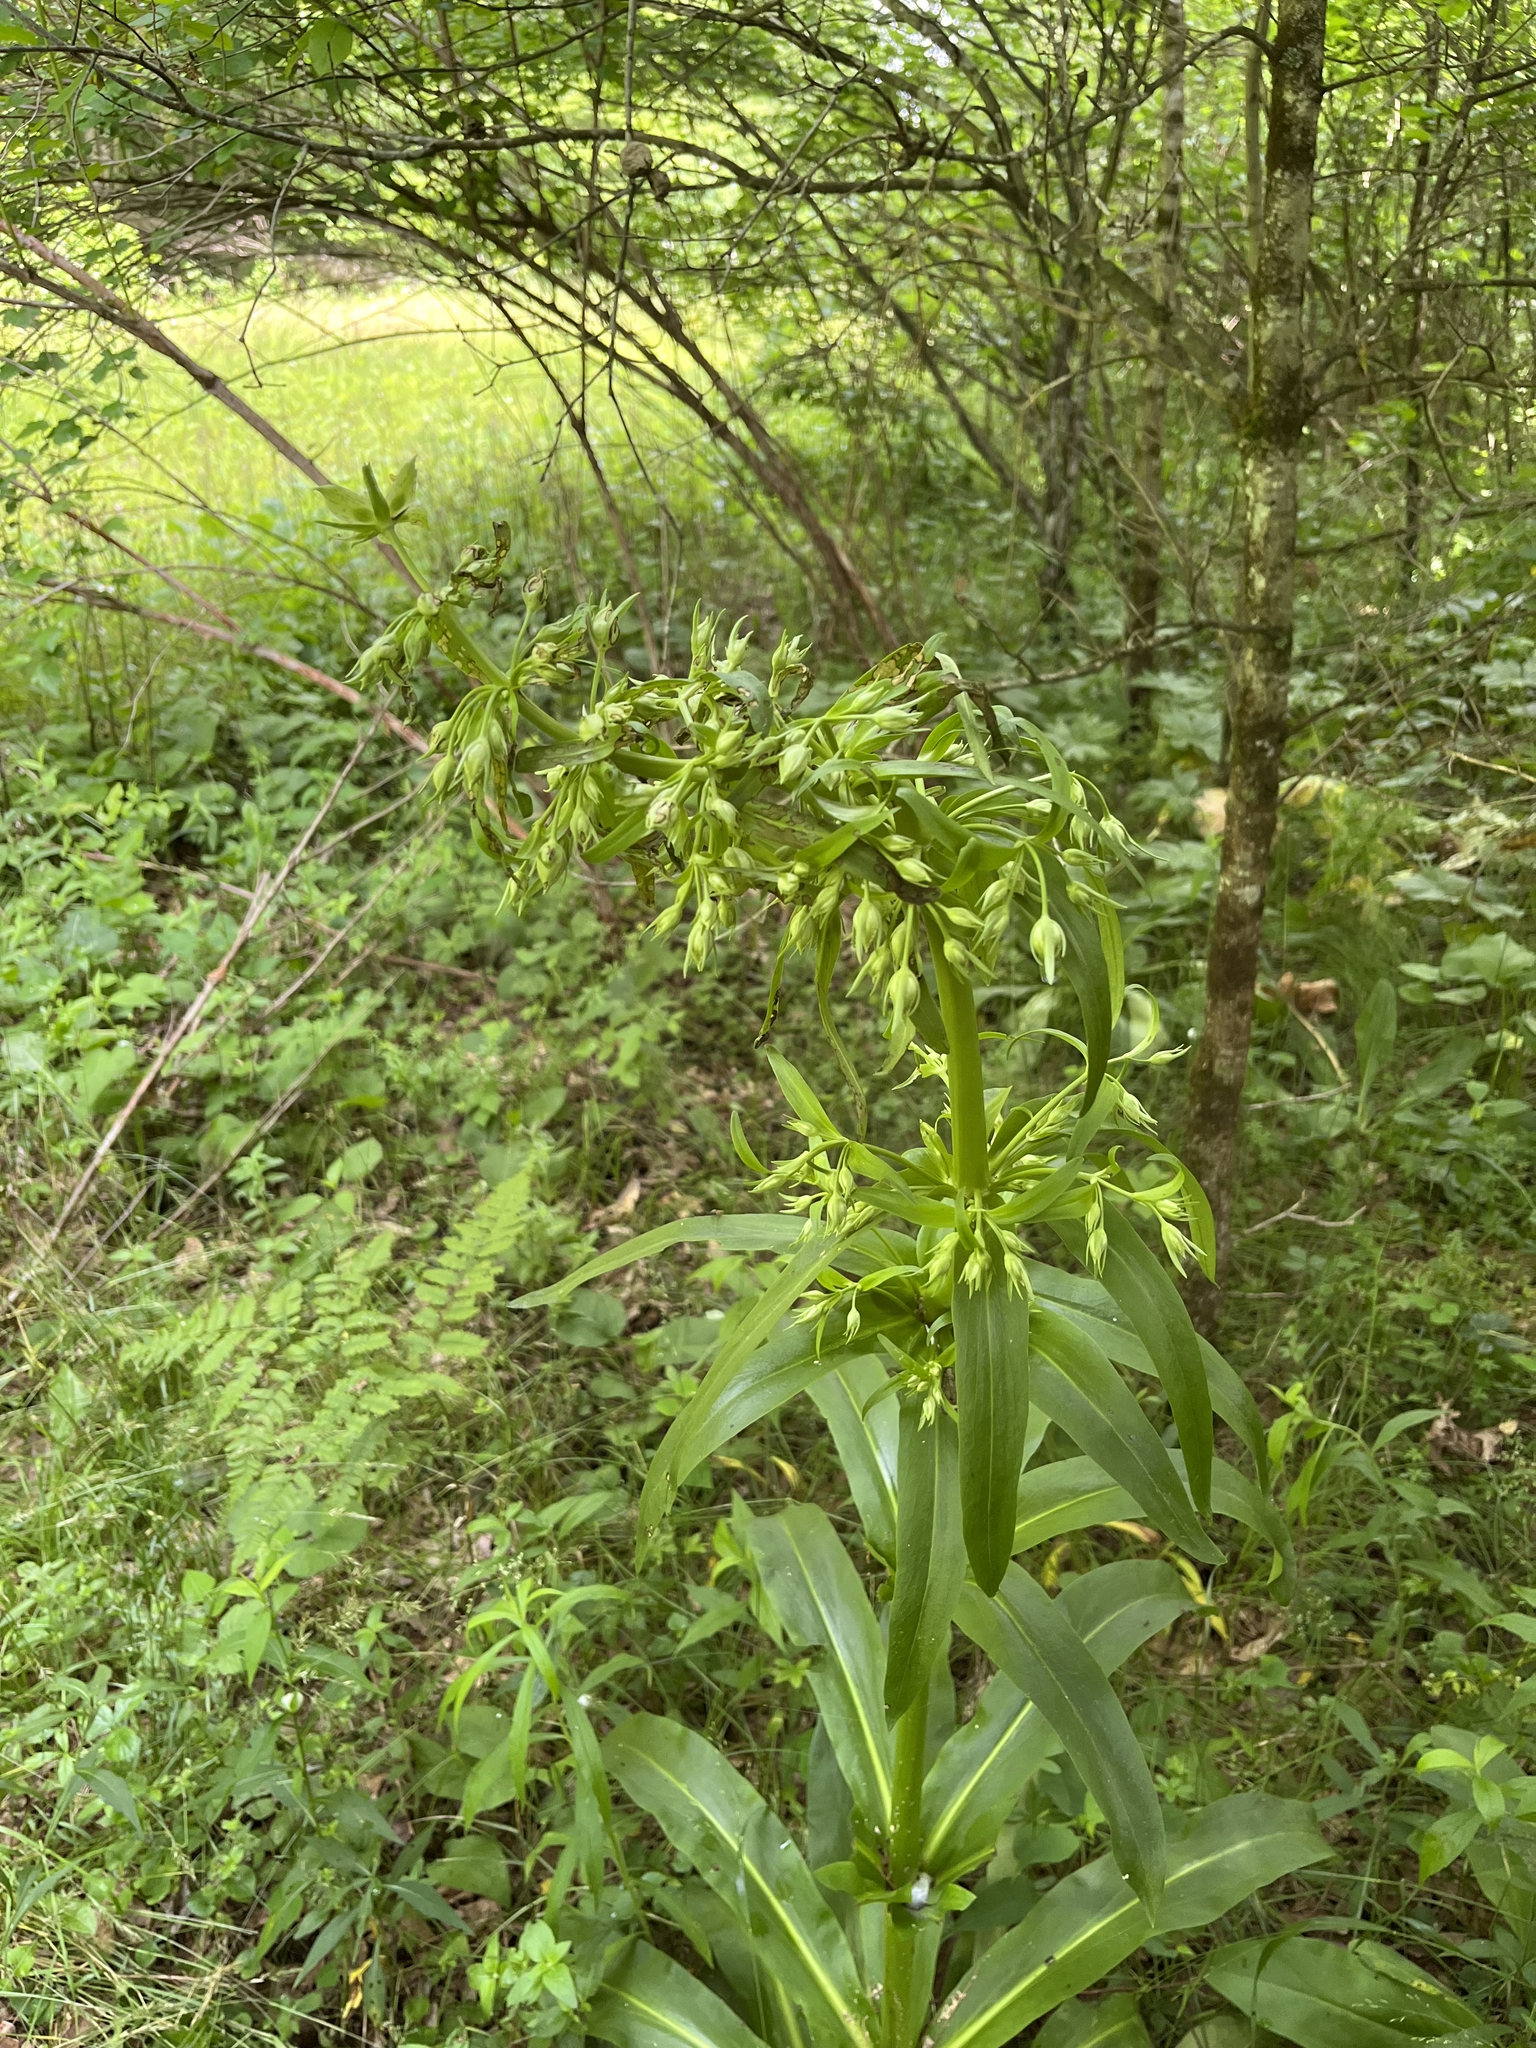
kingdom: Plantae
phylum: Tracheophyta
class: Magnoliopsida
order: Gentianales
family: Gentianaceae
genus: Frasera
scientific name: Frasera caroliniensis
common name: American columbo
